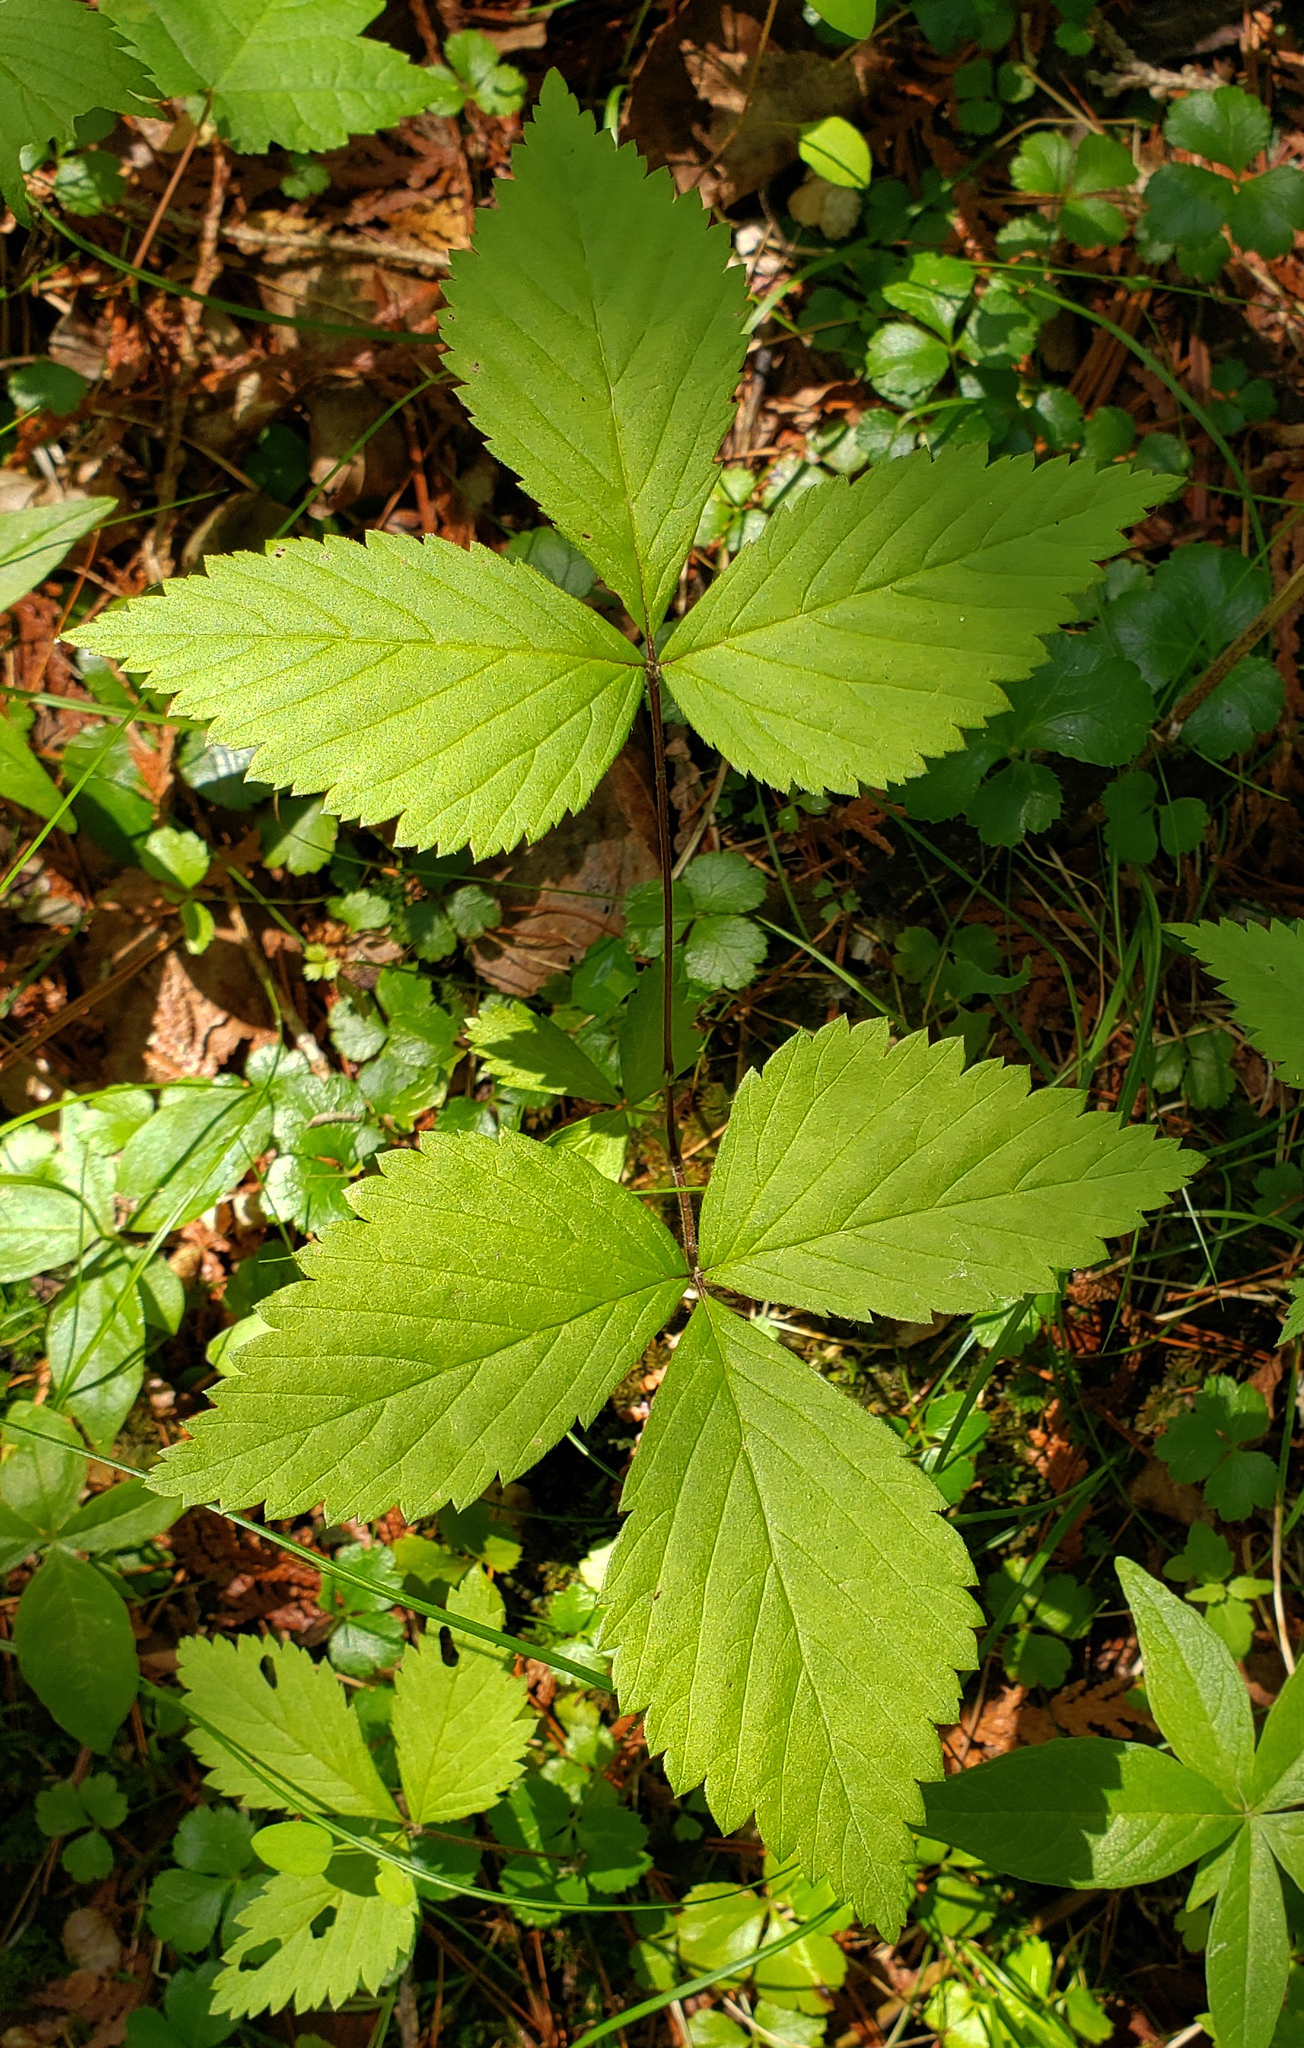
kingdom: Plantae
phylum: Tracheophyta
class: Magnoliopsida
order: Rosales
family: Rosaceae
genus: Rubus
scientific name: Rubus pubescens
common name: Dwarf raspberry
